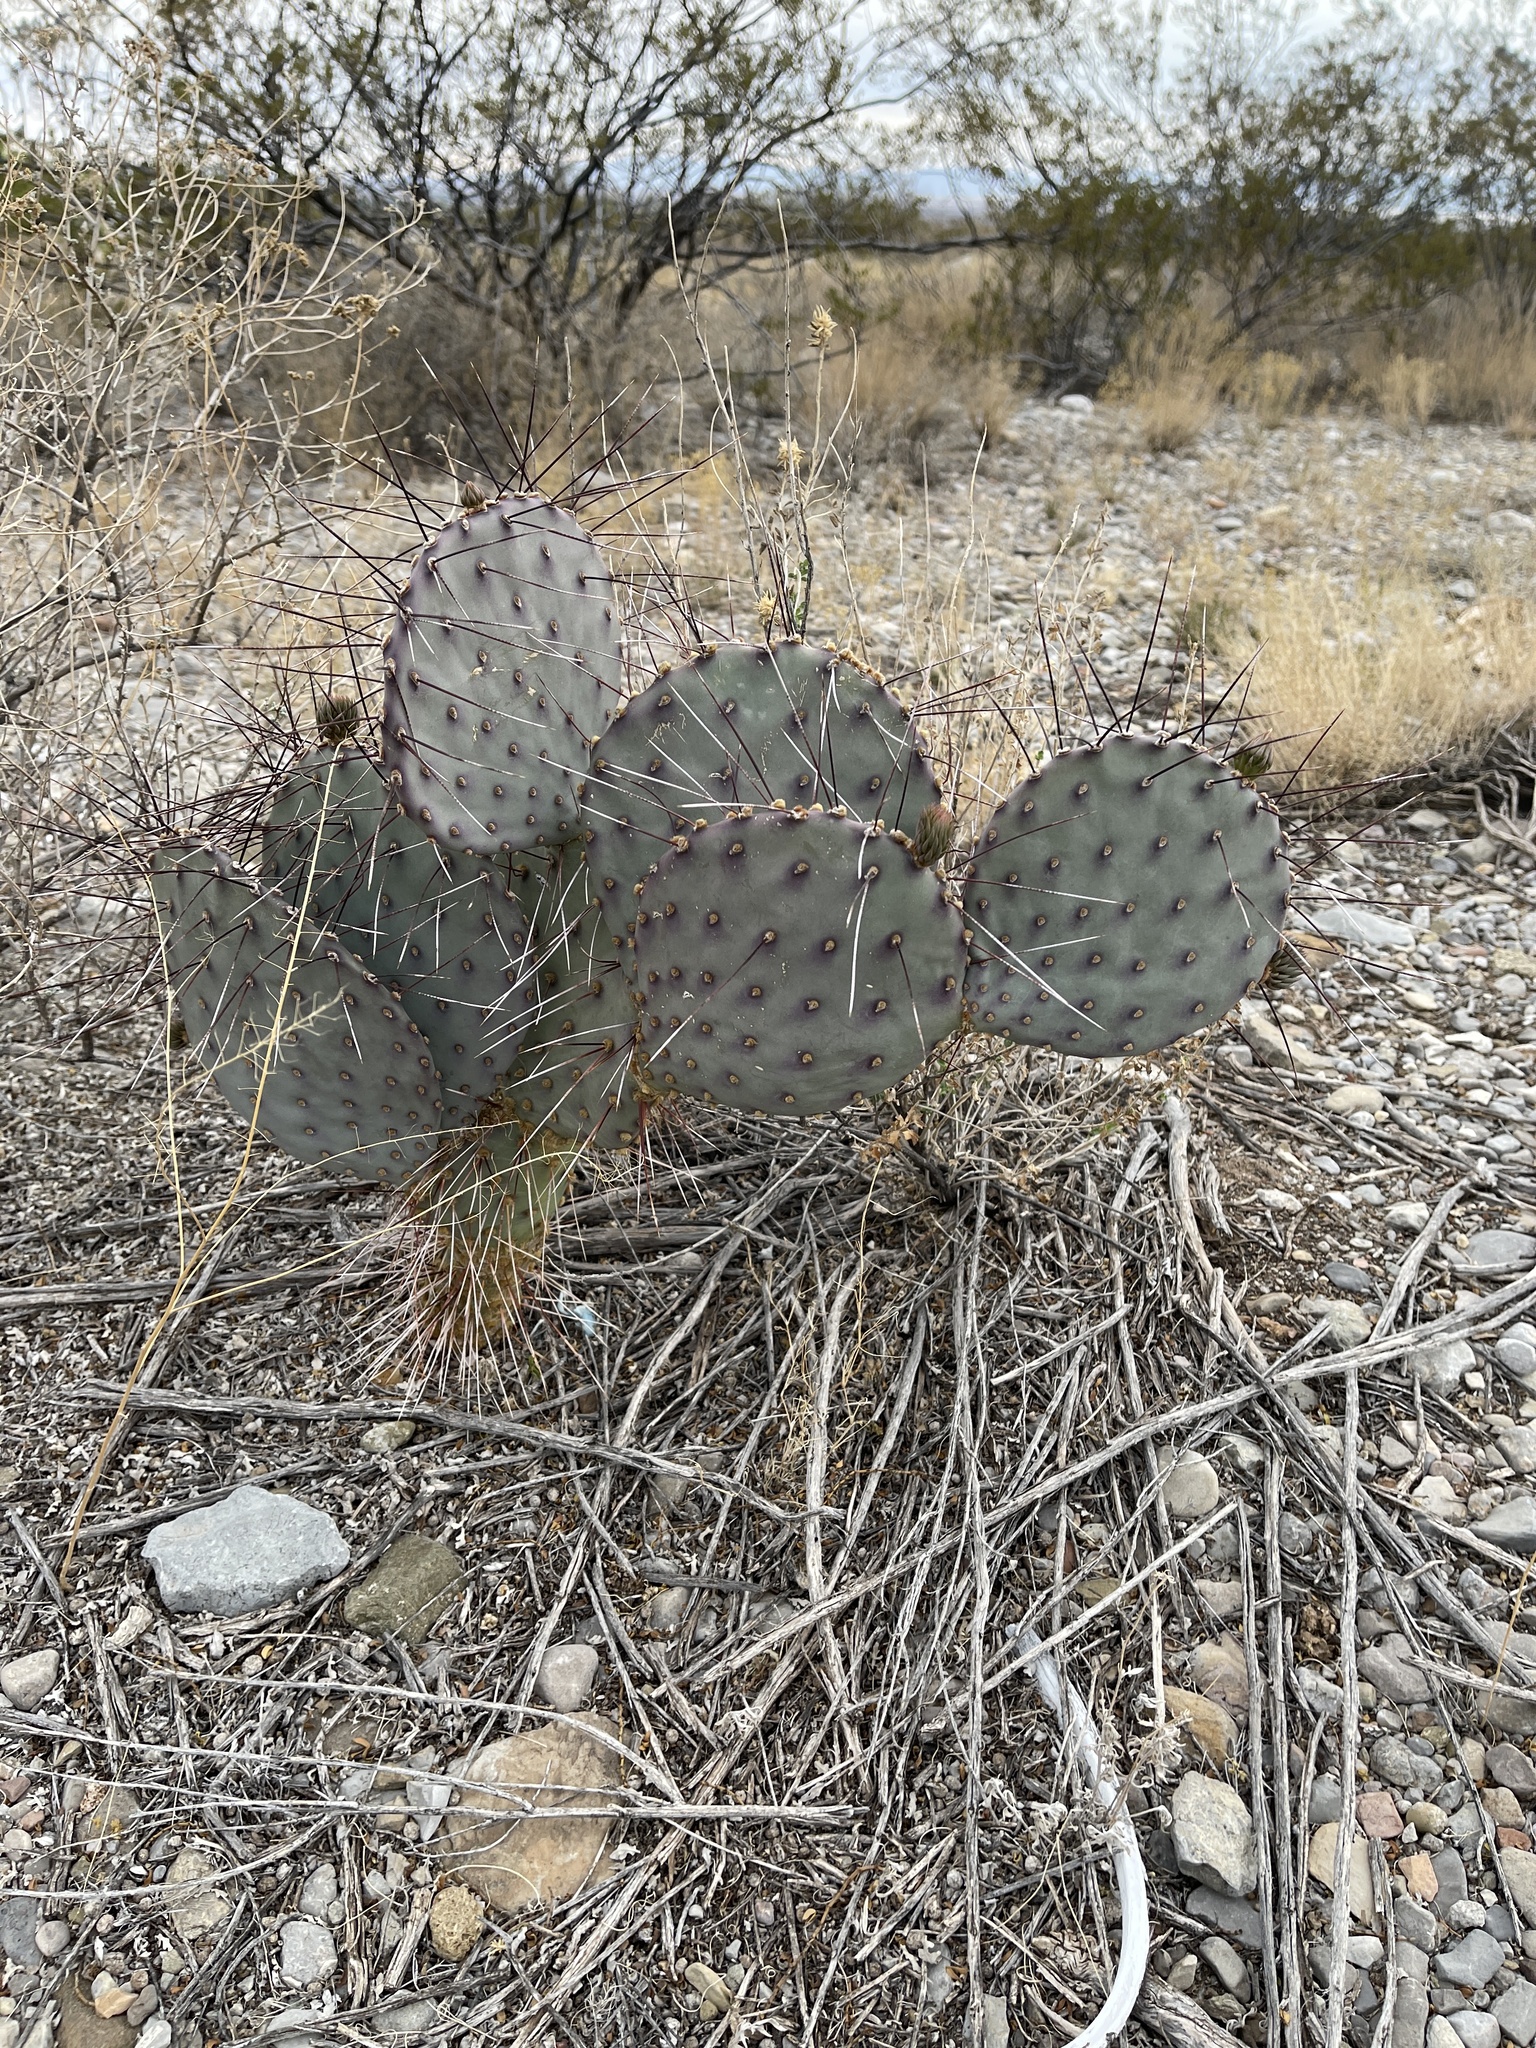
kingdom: Plantae
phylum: Tracheophyta
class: Magnoliopsida
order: Caryophyllales
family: Cactaceae
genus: Opuntia
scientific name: Opuntia macrocentra
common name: Purple prickly-pear
